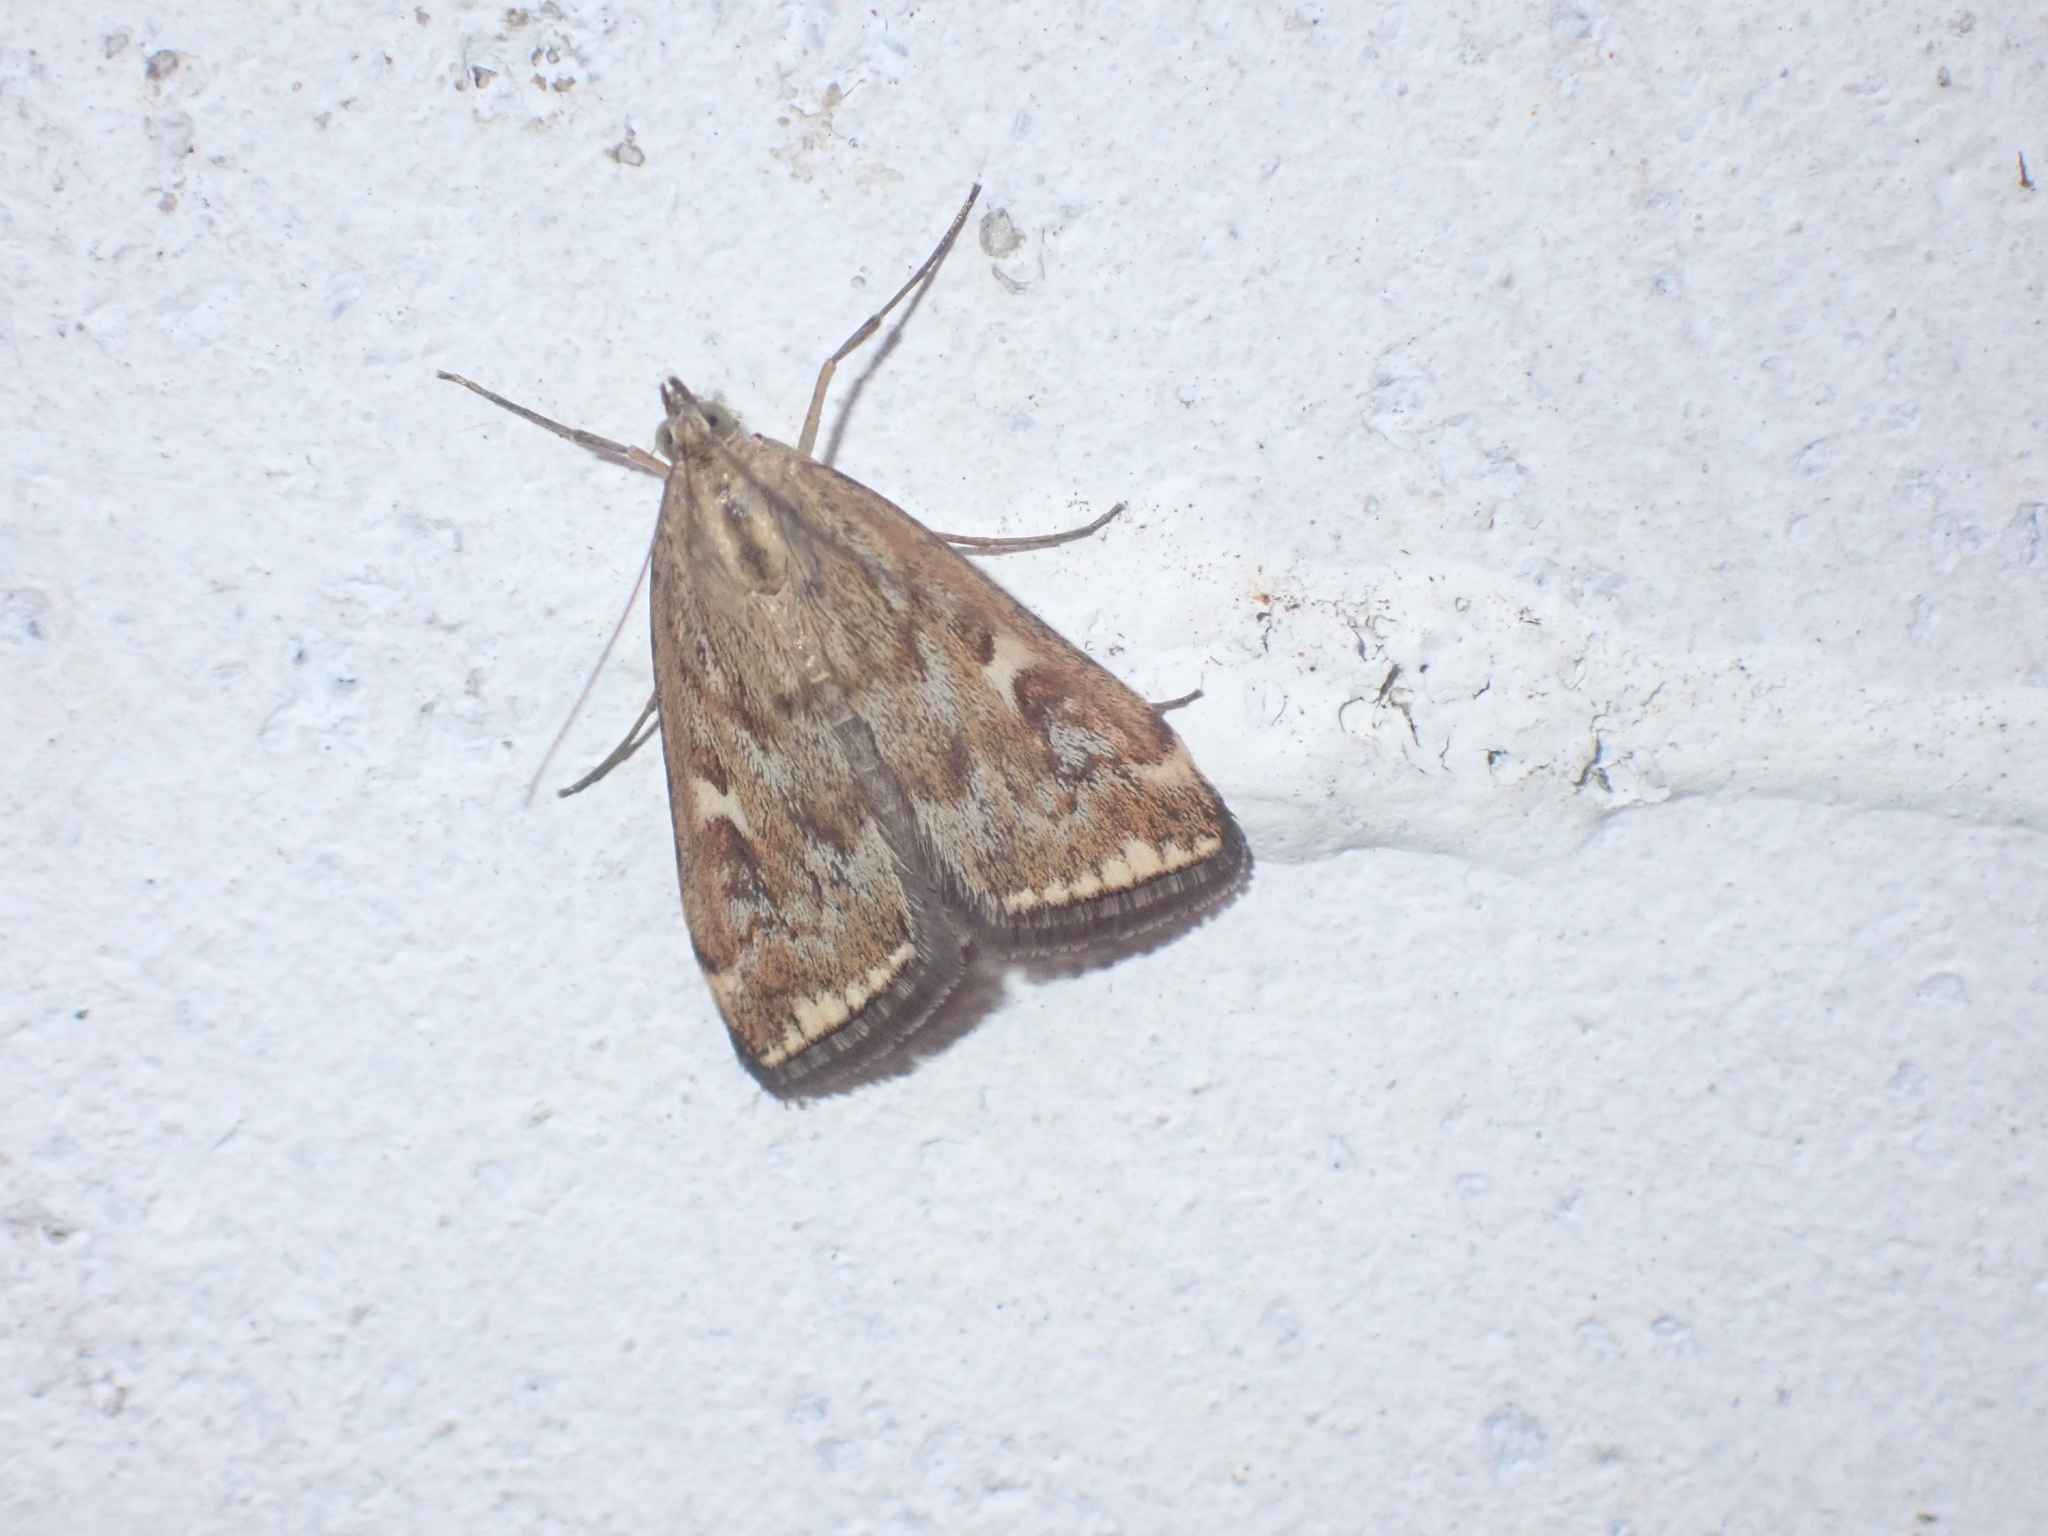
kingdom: Animalia
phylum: Arthropoda
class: Insecta
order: Lepidoptera
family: Crambidae
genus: Loxostege
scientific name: Loxostege sticticalis
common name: Crambid moth
